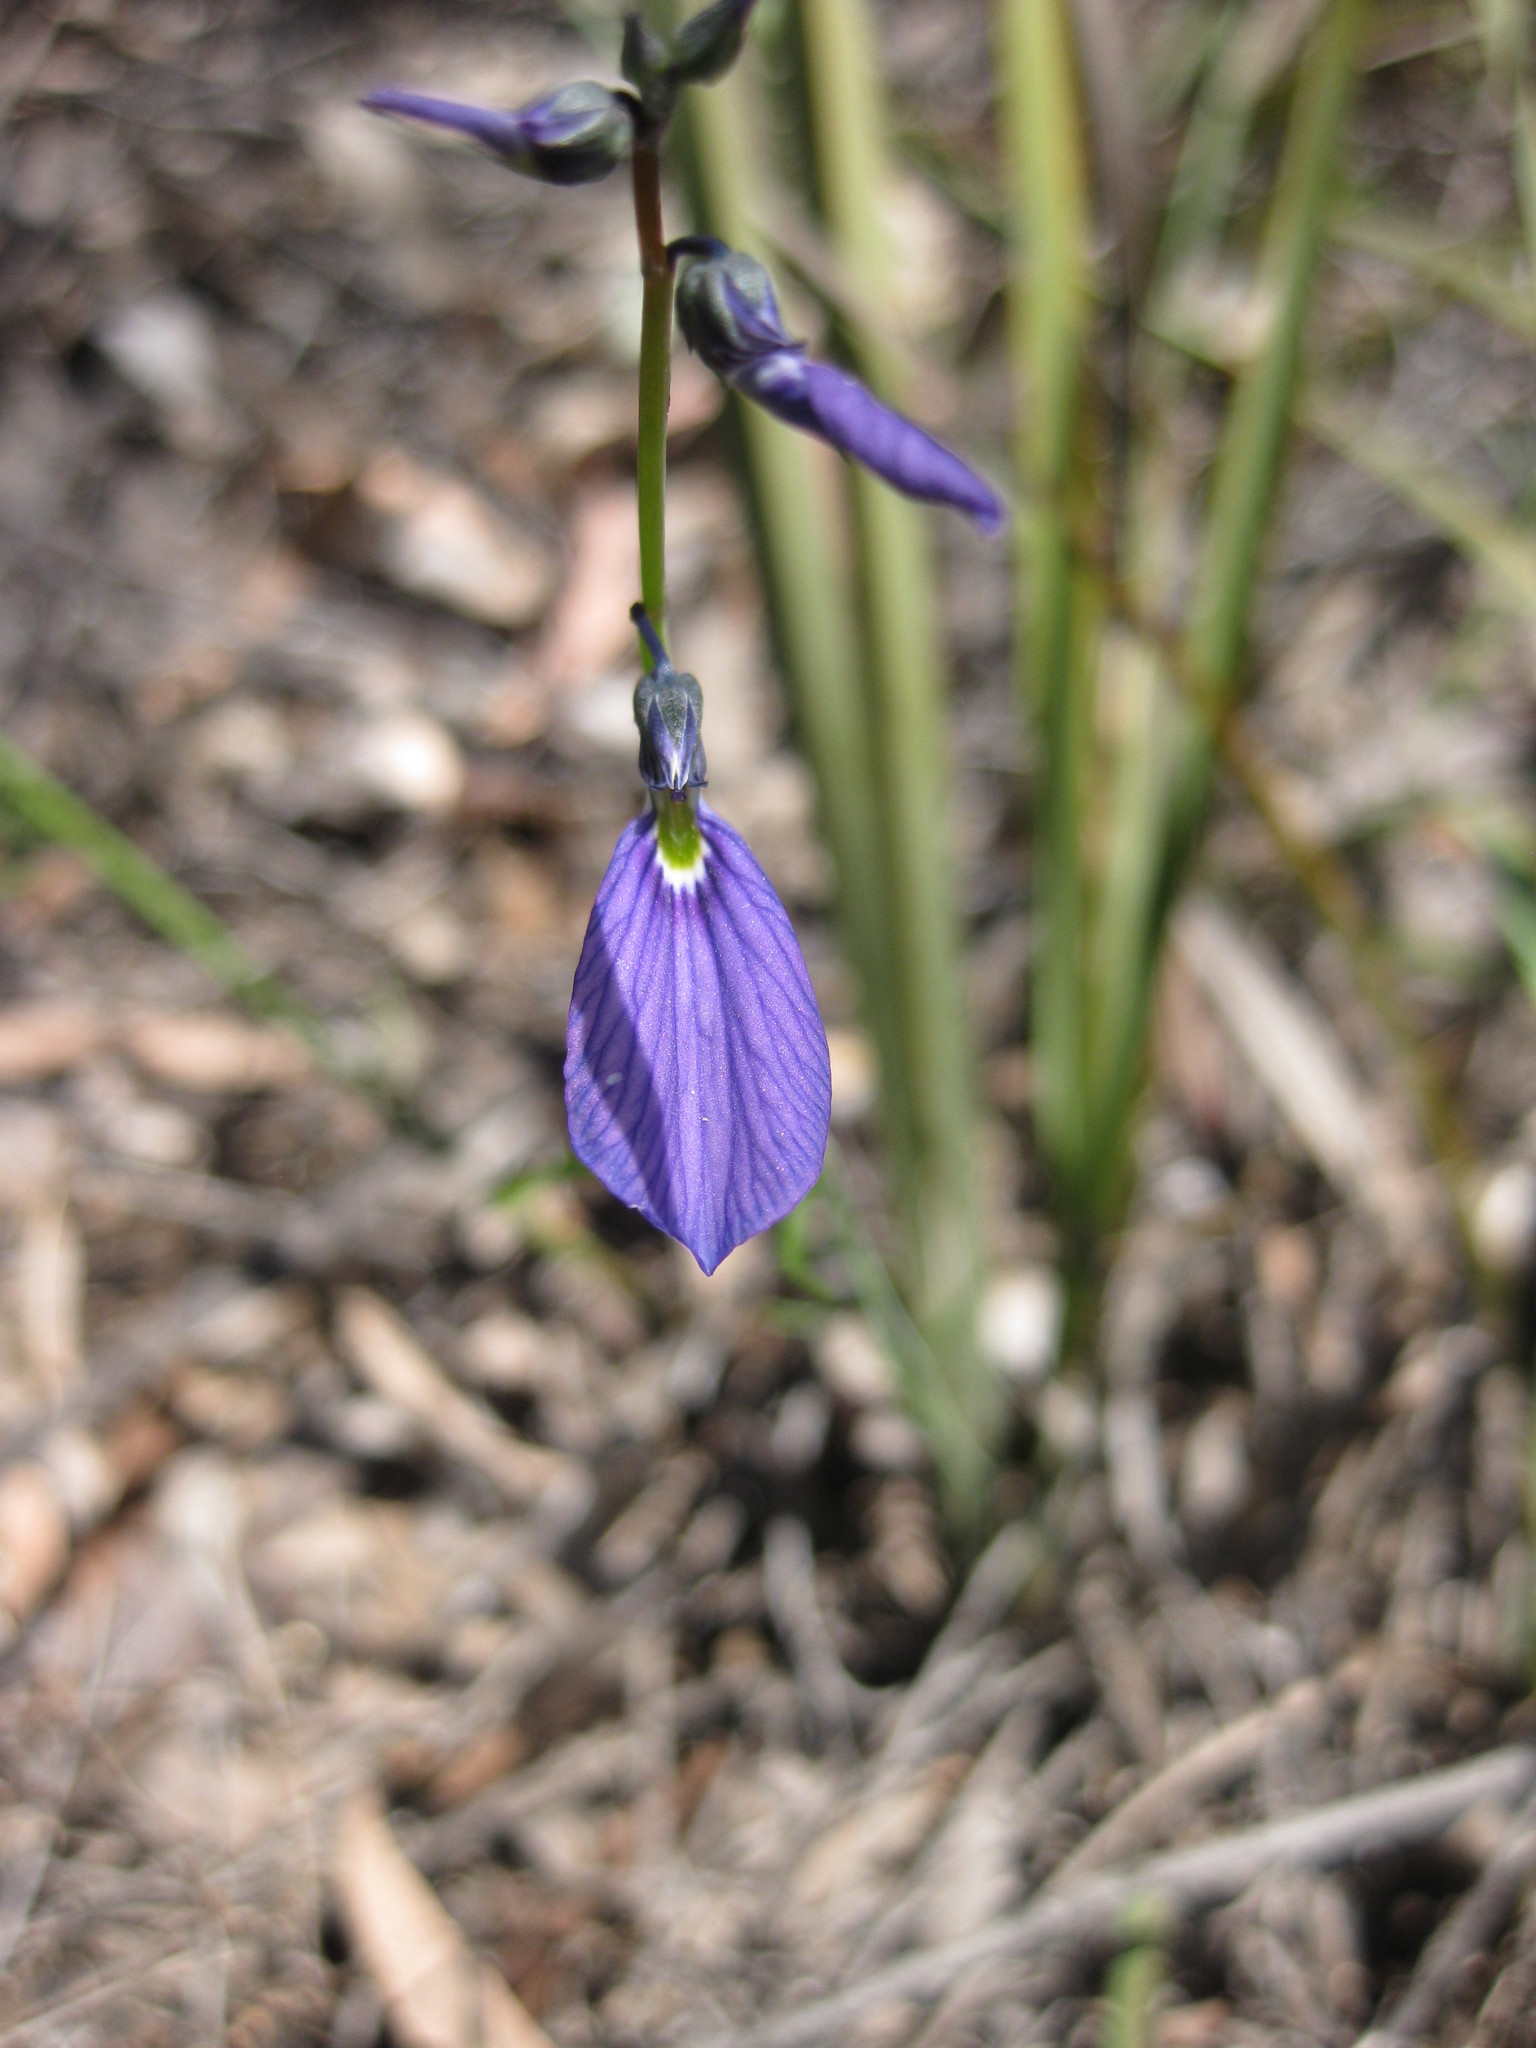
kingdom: Plantae
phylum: Tracheophyta
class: Magnoliopsida
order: Malpighiales
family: Violaceae
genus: Pigea
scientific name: Pigea monopetala
